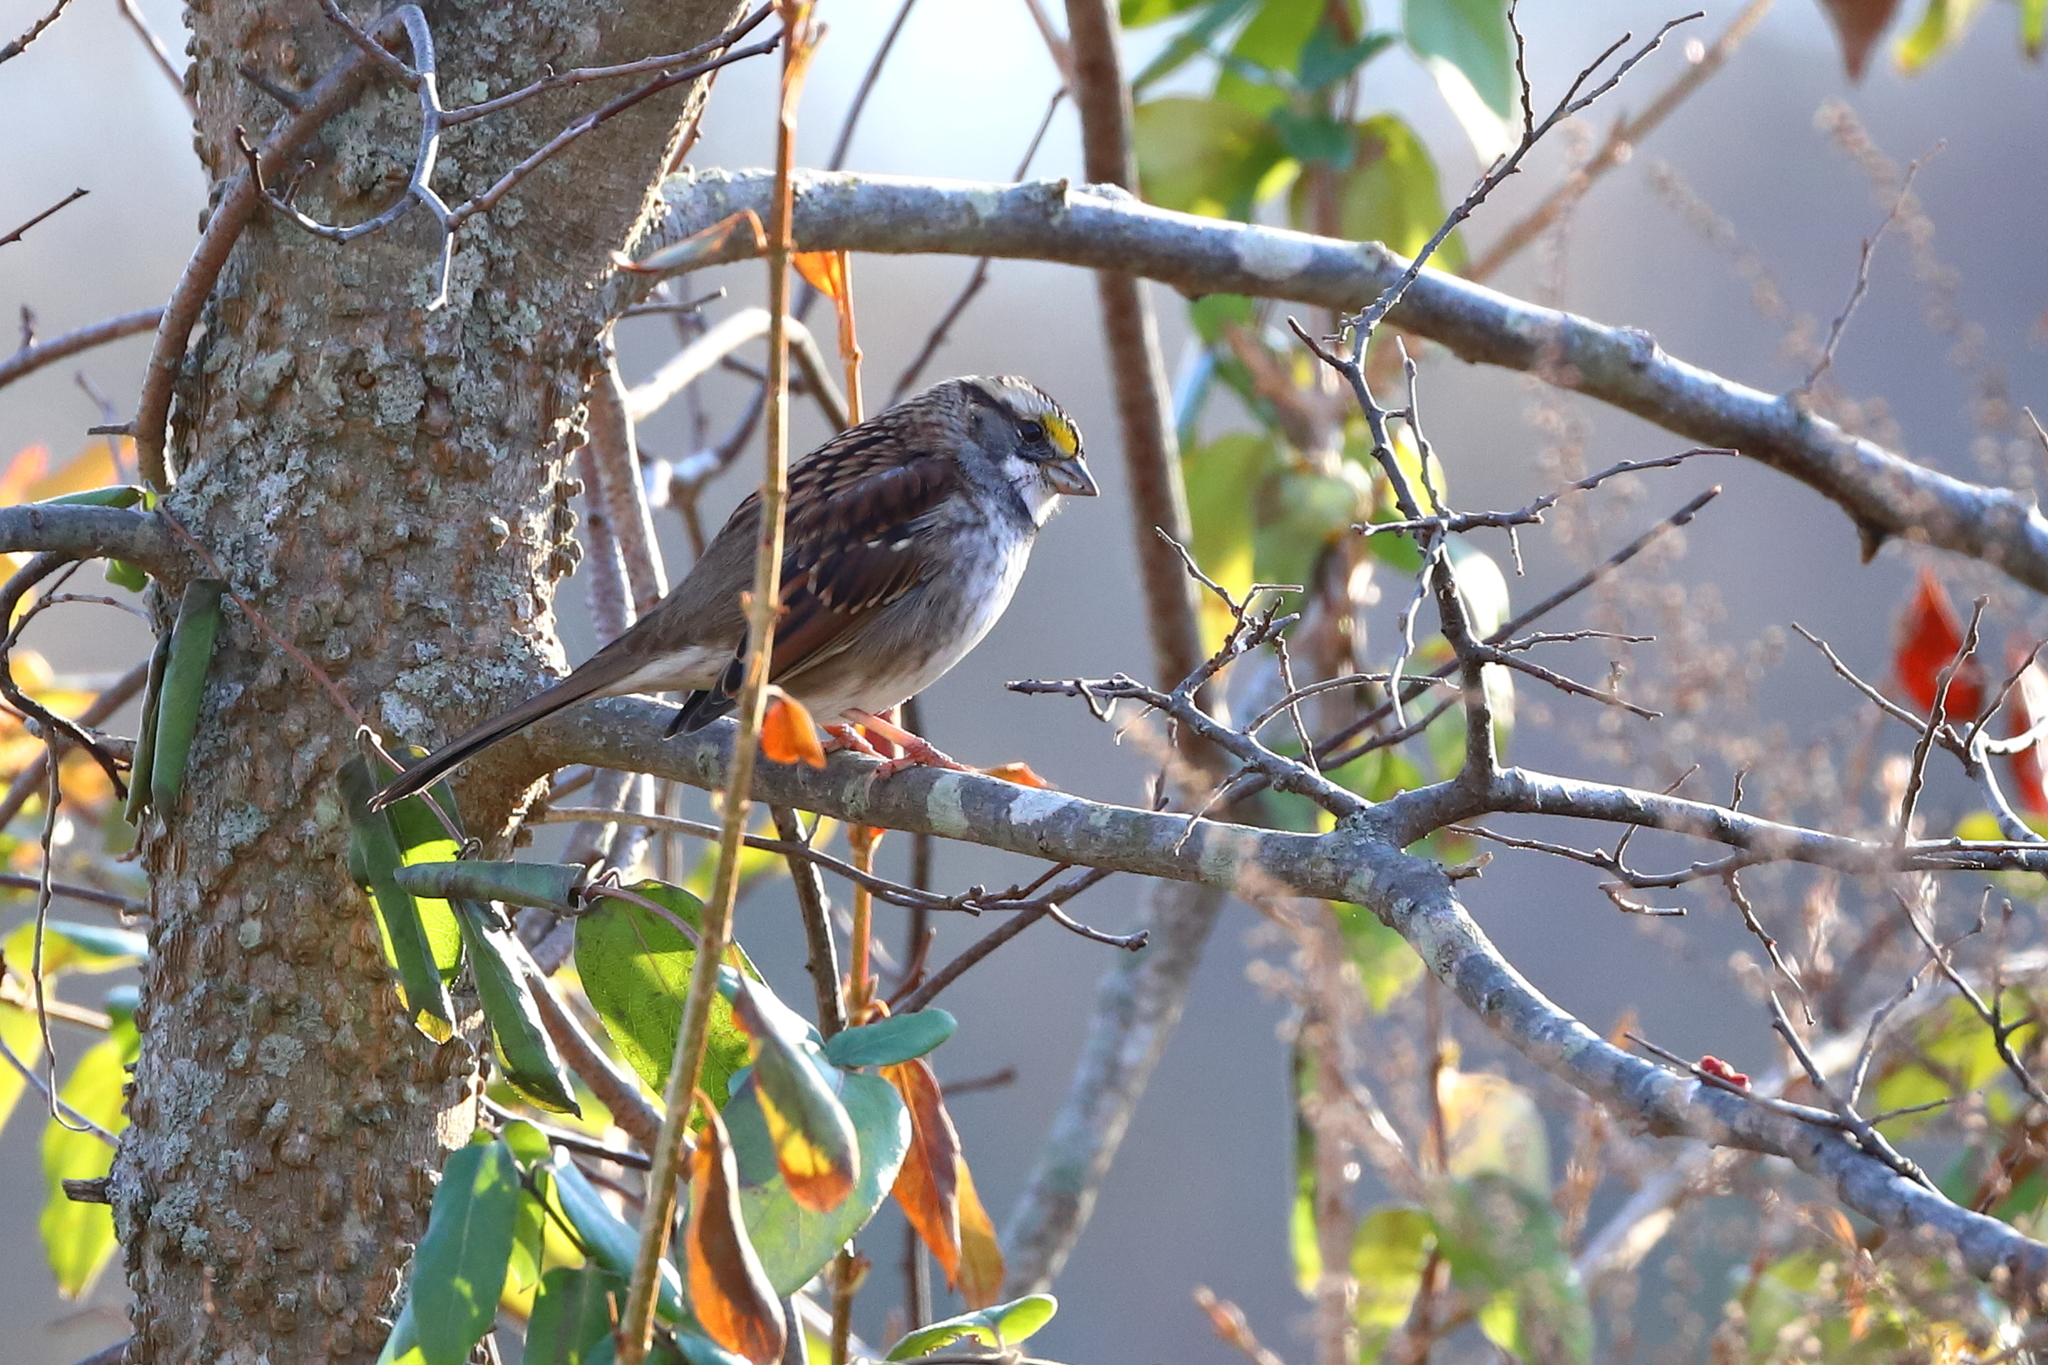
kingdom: Animalia
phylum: Chordata
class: Aves
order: Passeriformes
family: Passerellidae
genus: Zonotrichia
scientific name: Zonotrichia albicollis
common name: White-throated sparrow
